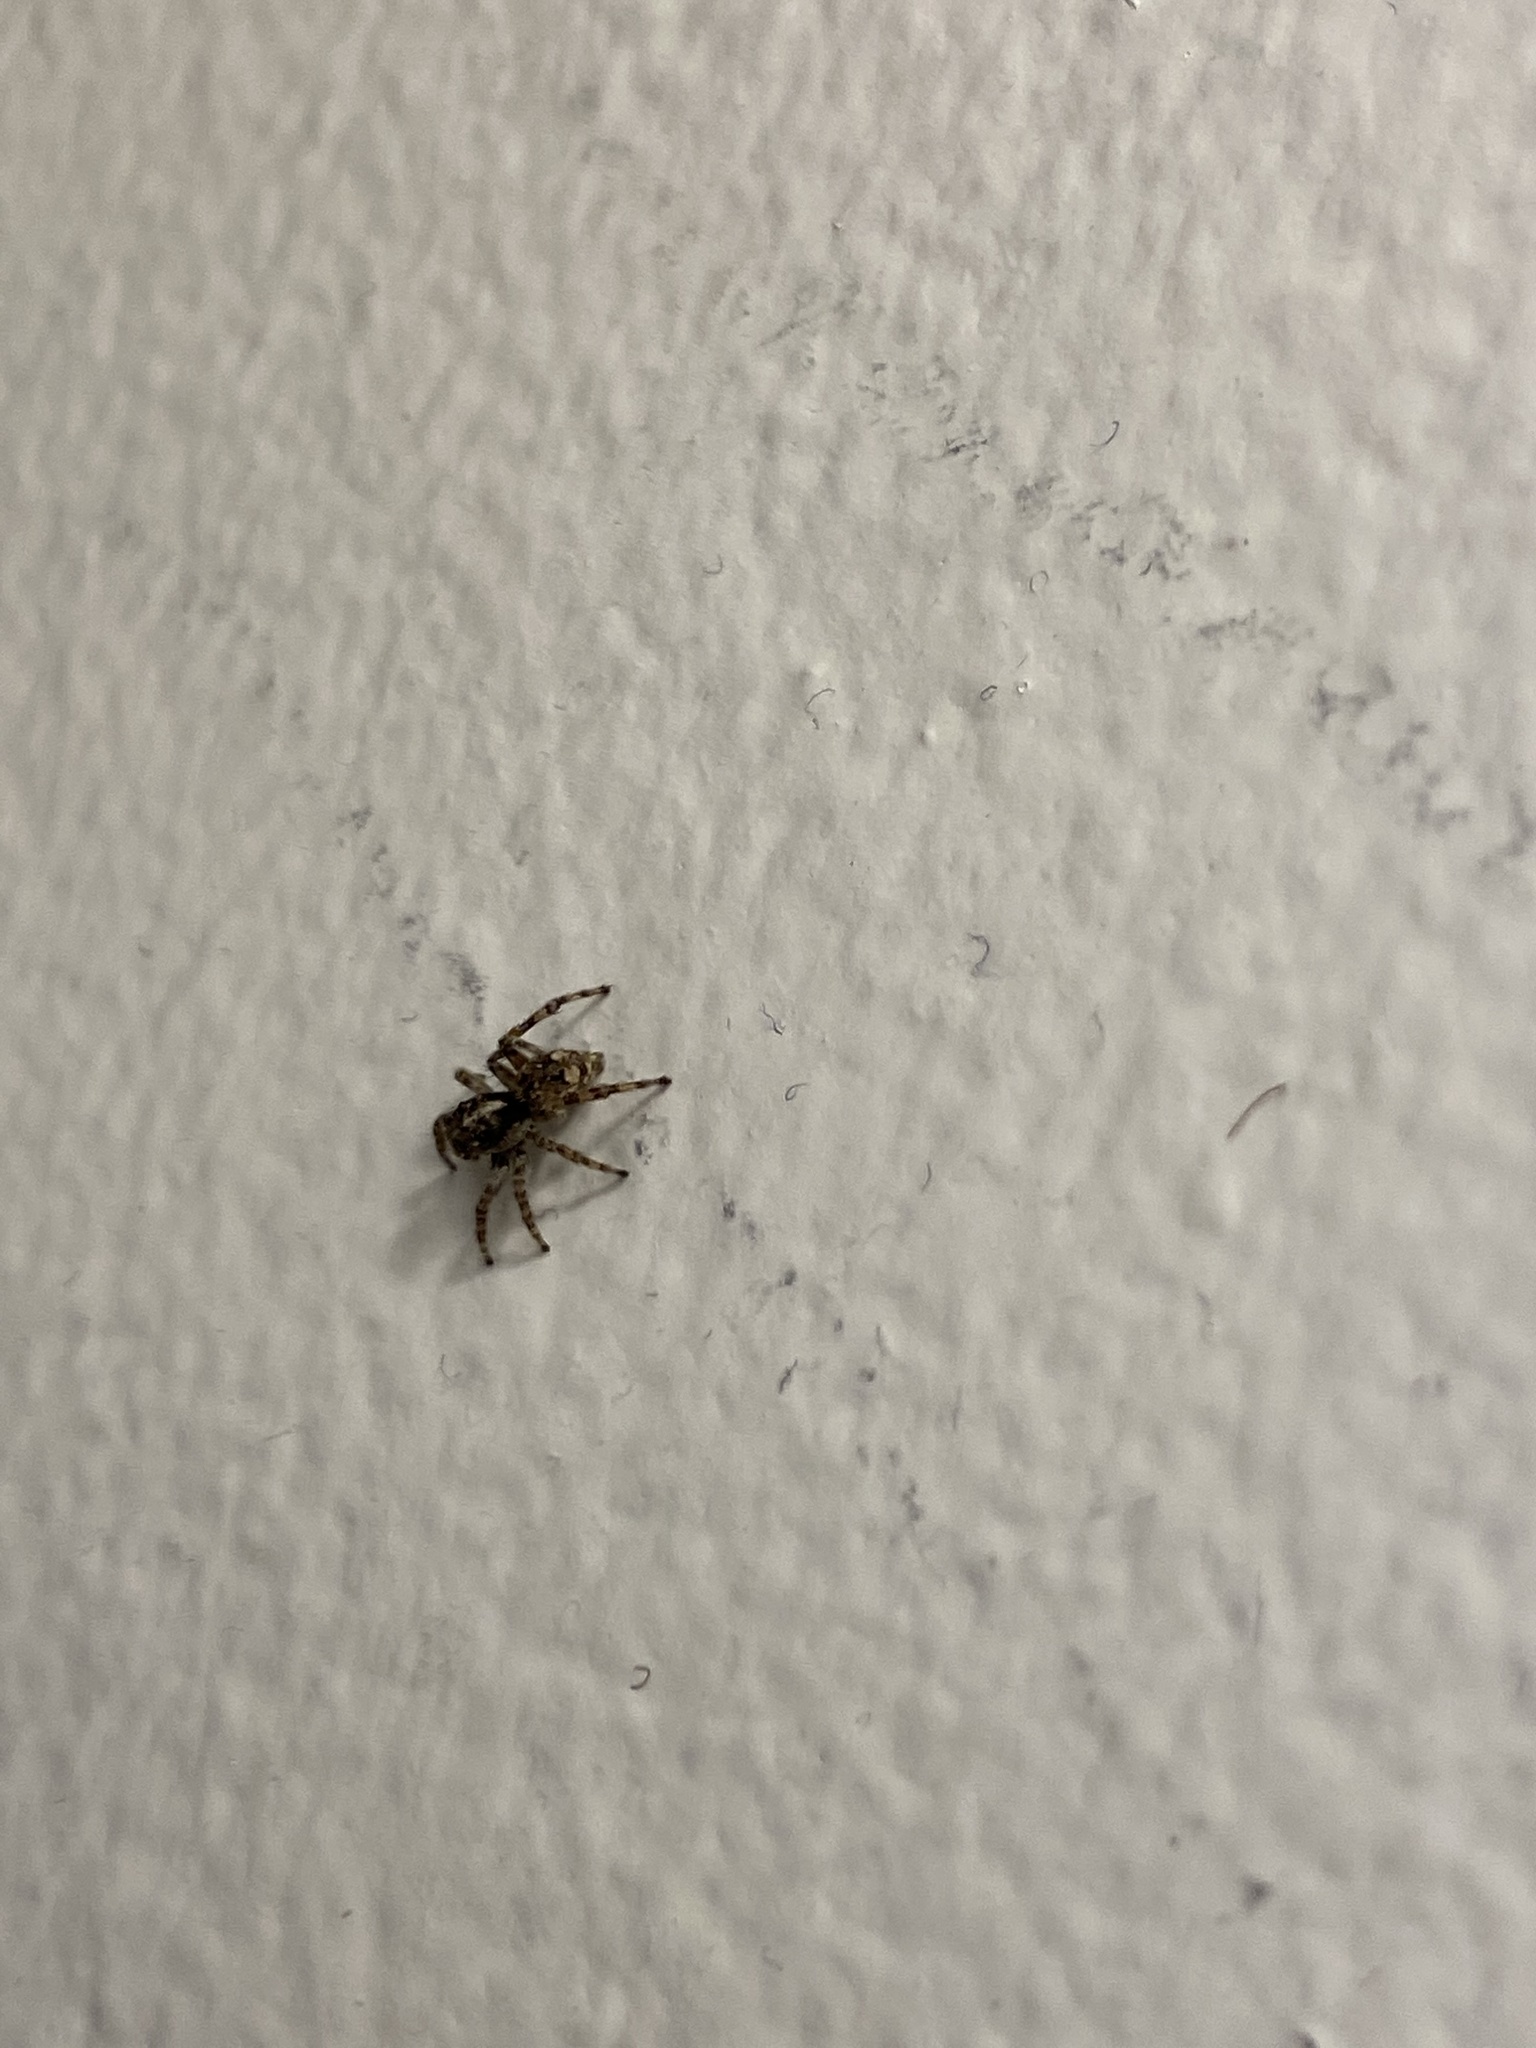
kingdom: Animalia
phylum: Arthropoda
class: Arachnida
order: Araneae
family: Salticidae
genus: Attulus
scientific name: Attulus fasciger
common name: Asiatic wall jumping spider
